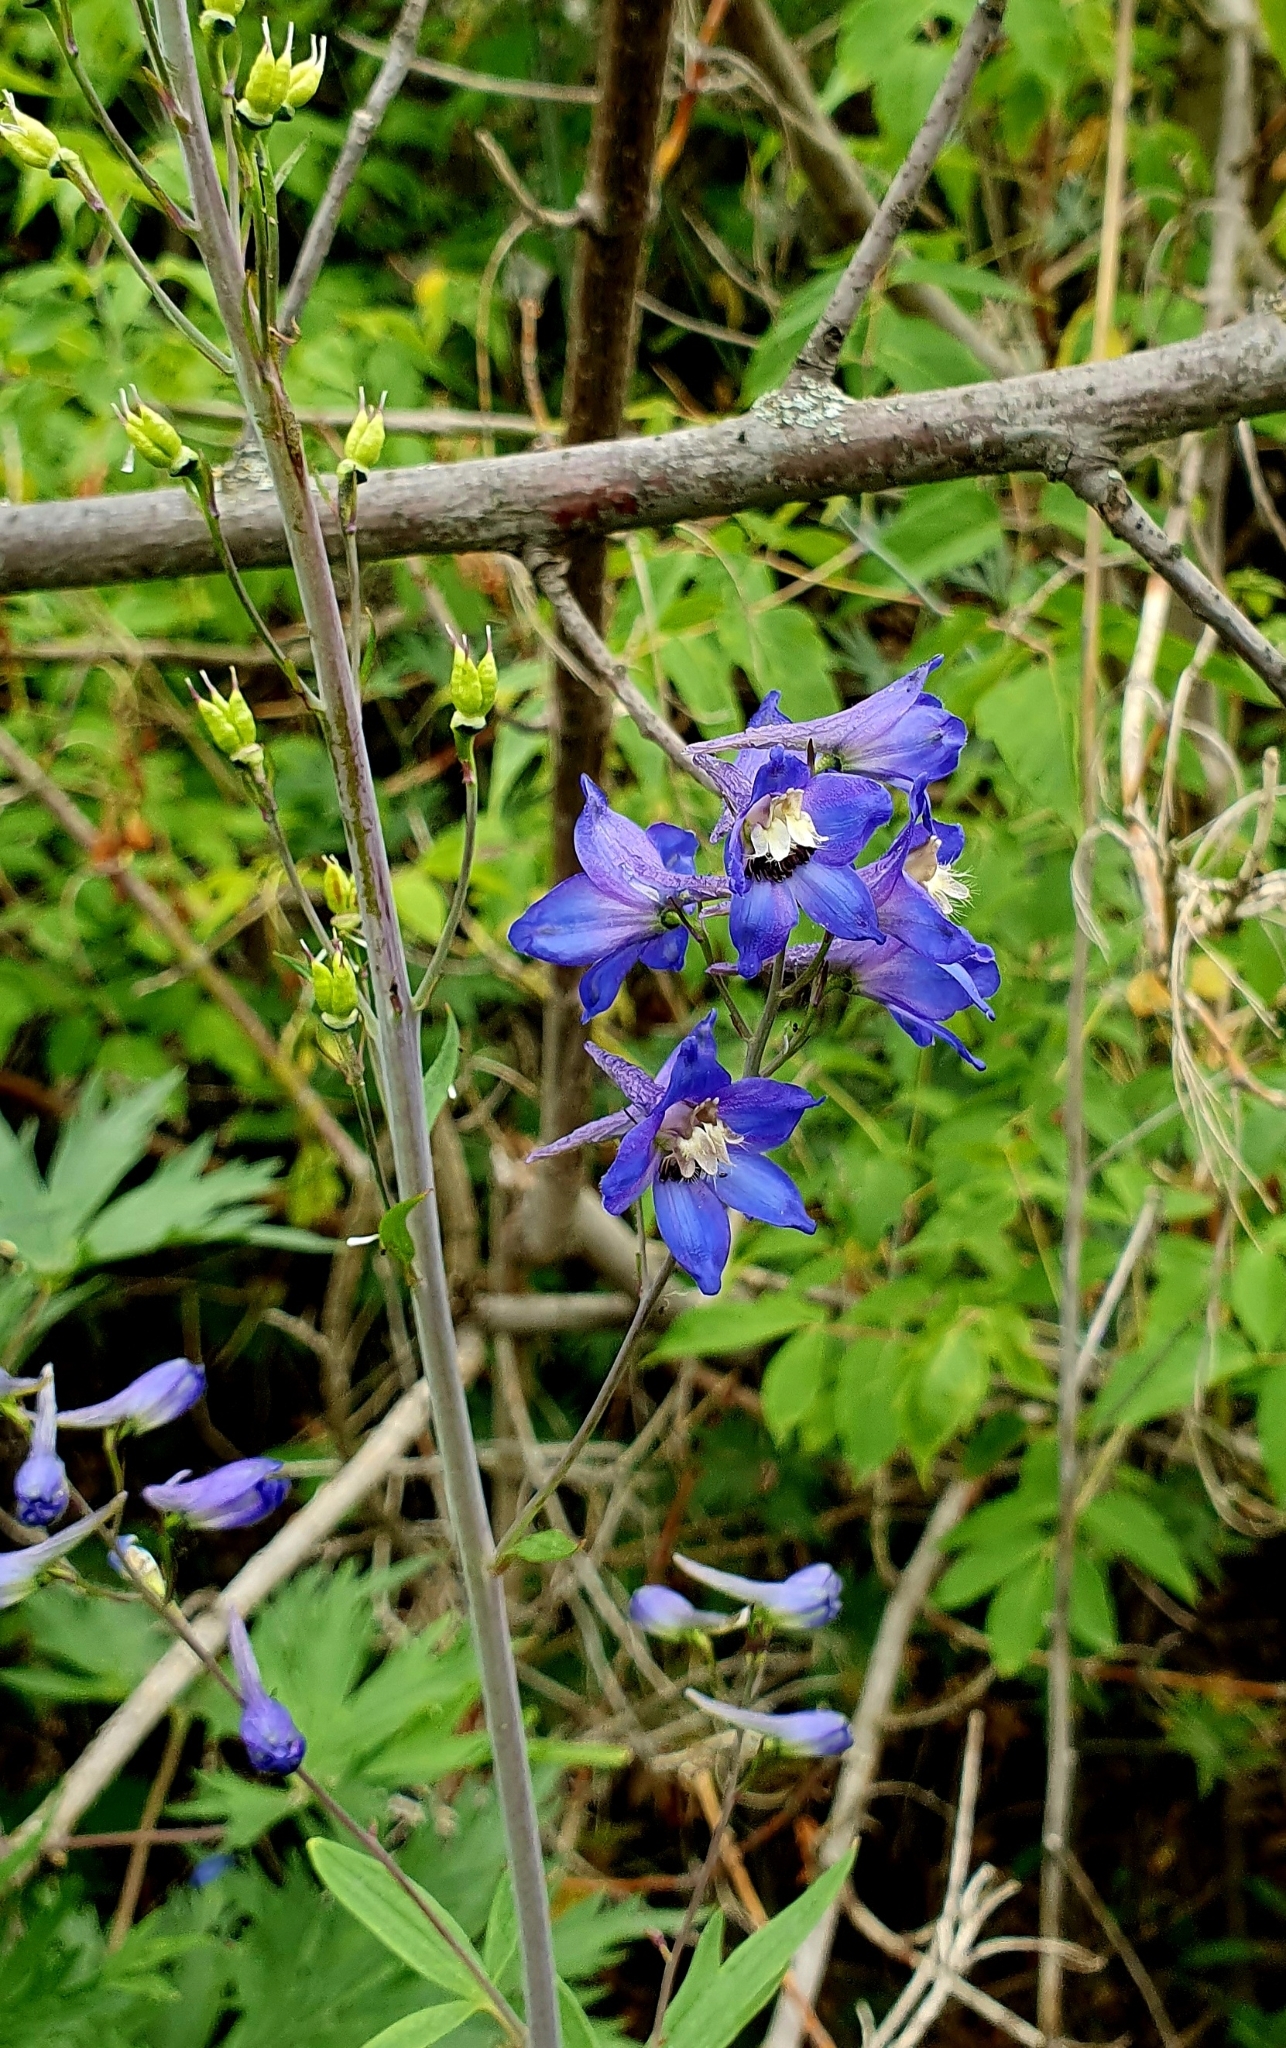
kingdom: Plantae
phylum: Tracheophyta
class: Magnoliopsida
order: Ranunculales
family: Ranunculaceae
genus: Delphinium
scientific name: Delphinium cuneatum
